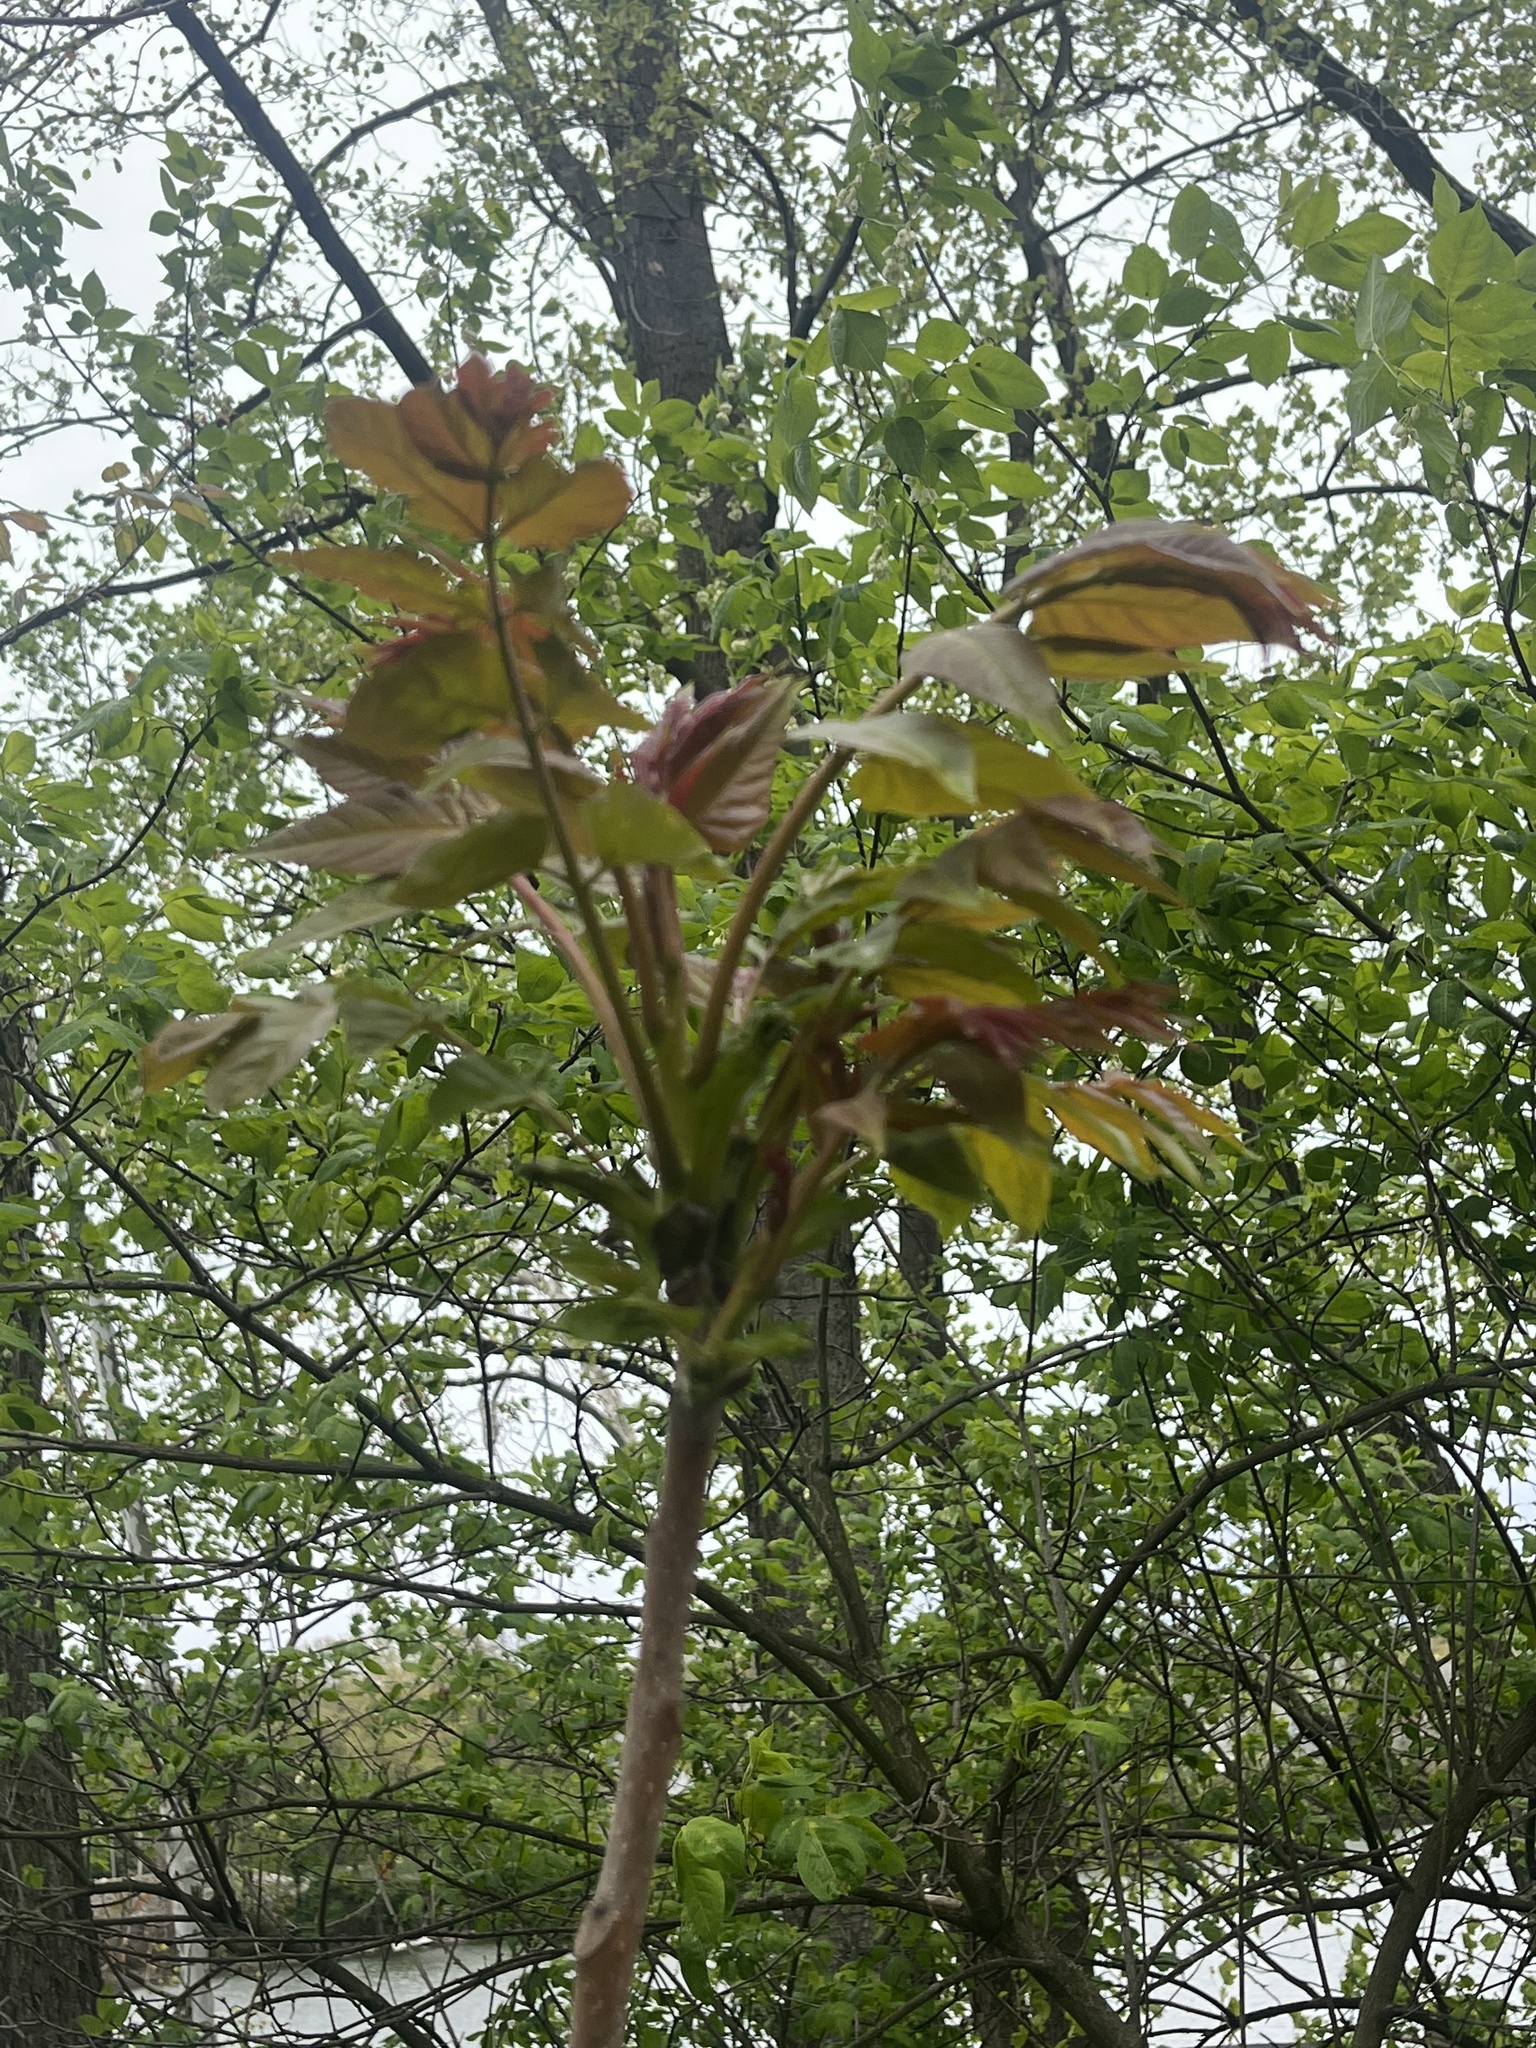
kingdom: Plantae
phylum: Tracheophyta
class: Magnoliopsida
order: Sapindales
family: Simaroubaceae
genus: Ailanthus
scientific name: Ailanthus altissima
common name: Tree-of-heaven
